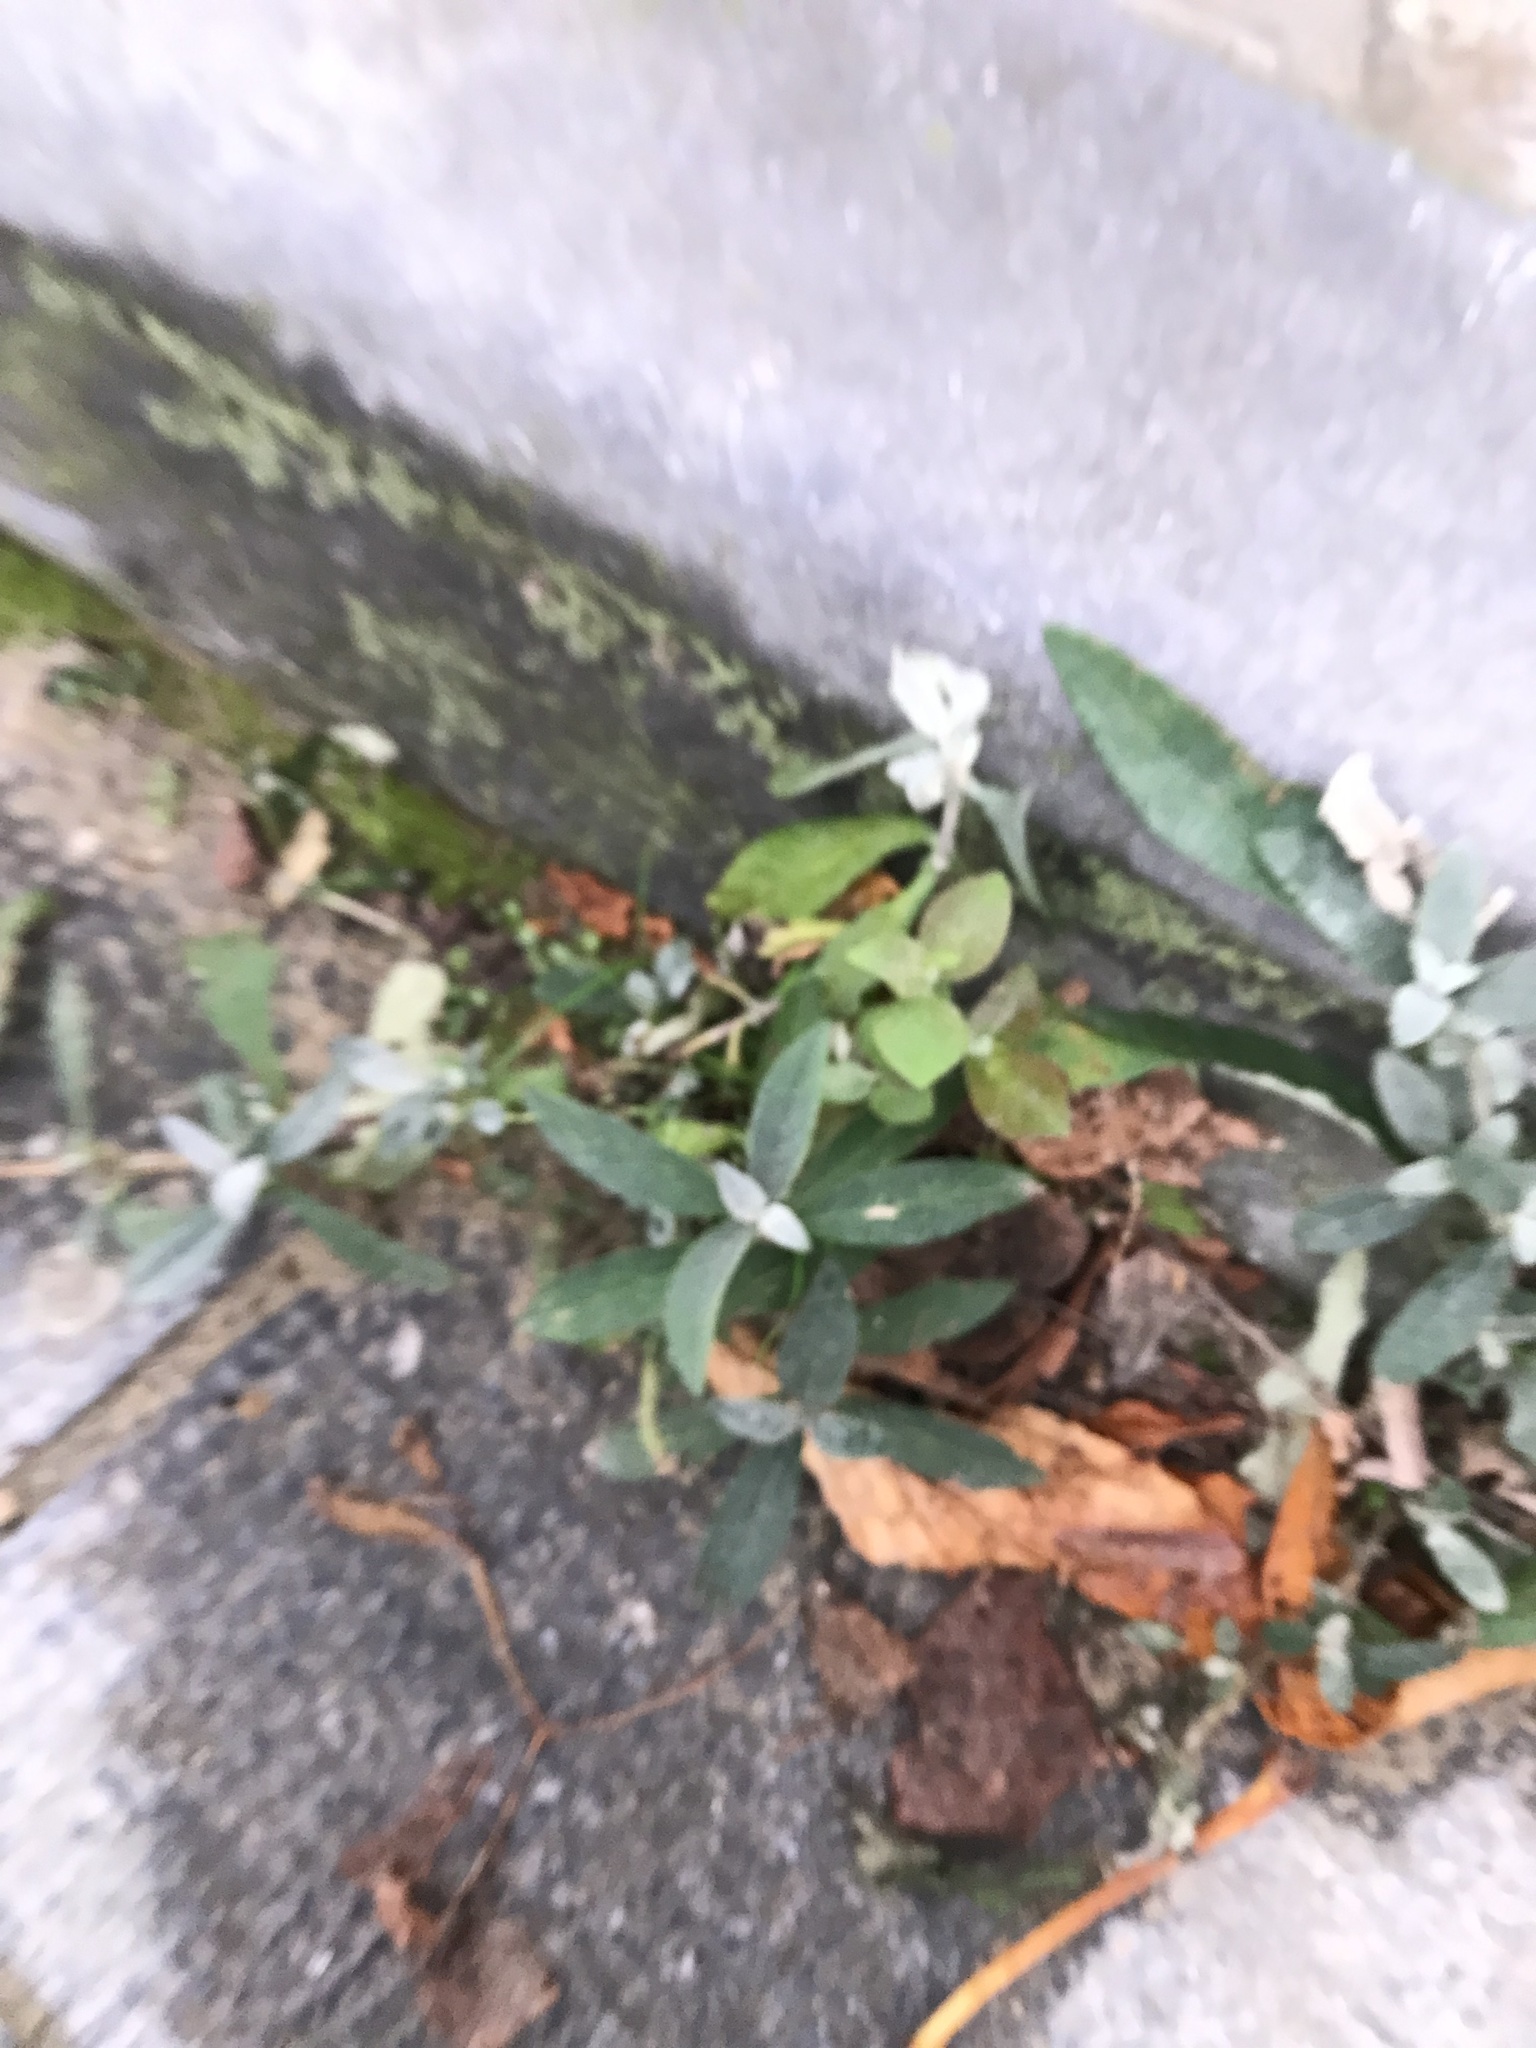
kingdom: Plantae
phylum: Tracheophyta
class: Magnoliopsida
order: Lamiales
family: Scrophulariaceae
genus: Buddleja
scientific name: Buddleja davidii
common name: Butterfly-bush
